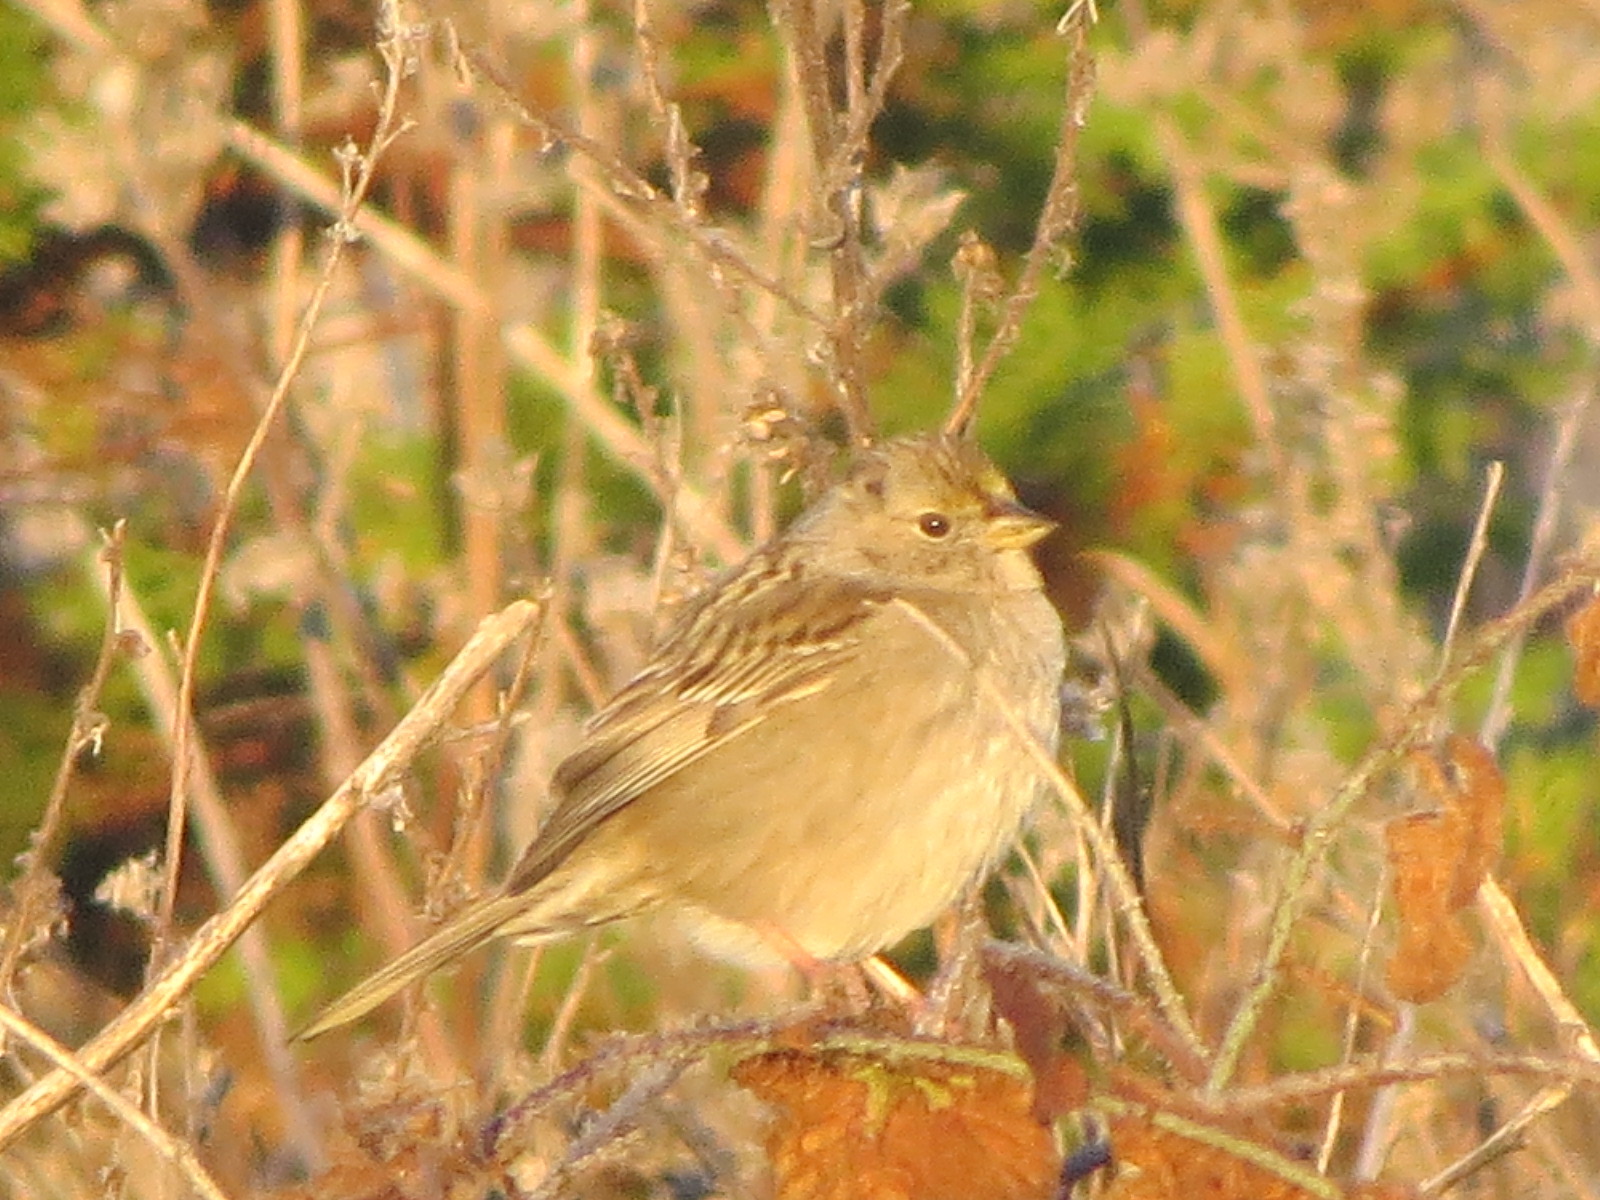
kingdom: Animalia
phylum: Chordata
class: Aves
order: Passeriformes
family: Passerellidae
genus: Zonotrichia
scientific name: Zonotrichia atricapilla
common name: Golden-crowned sparrow
